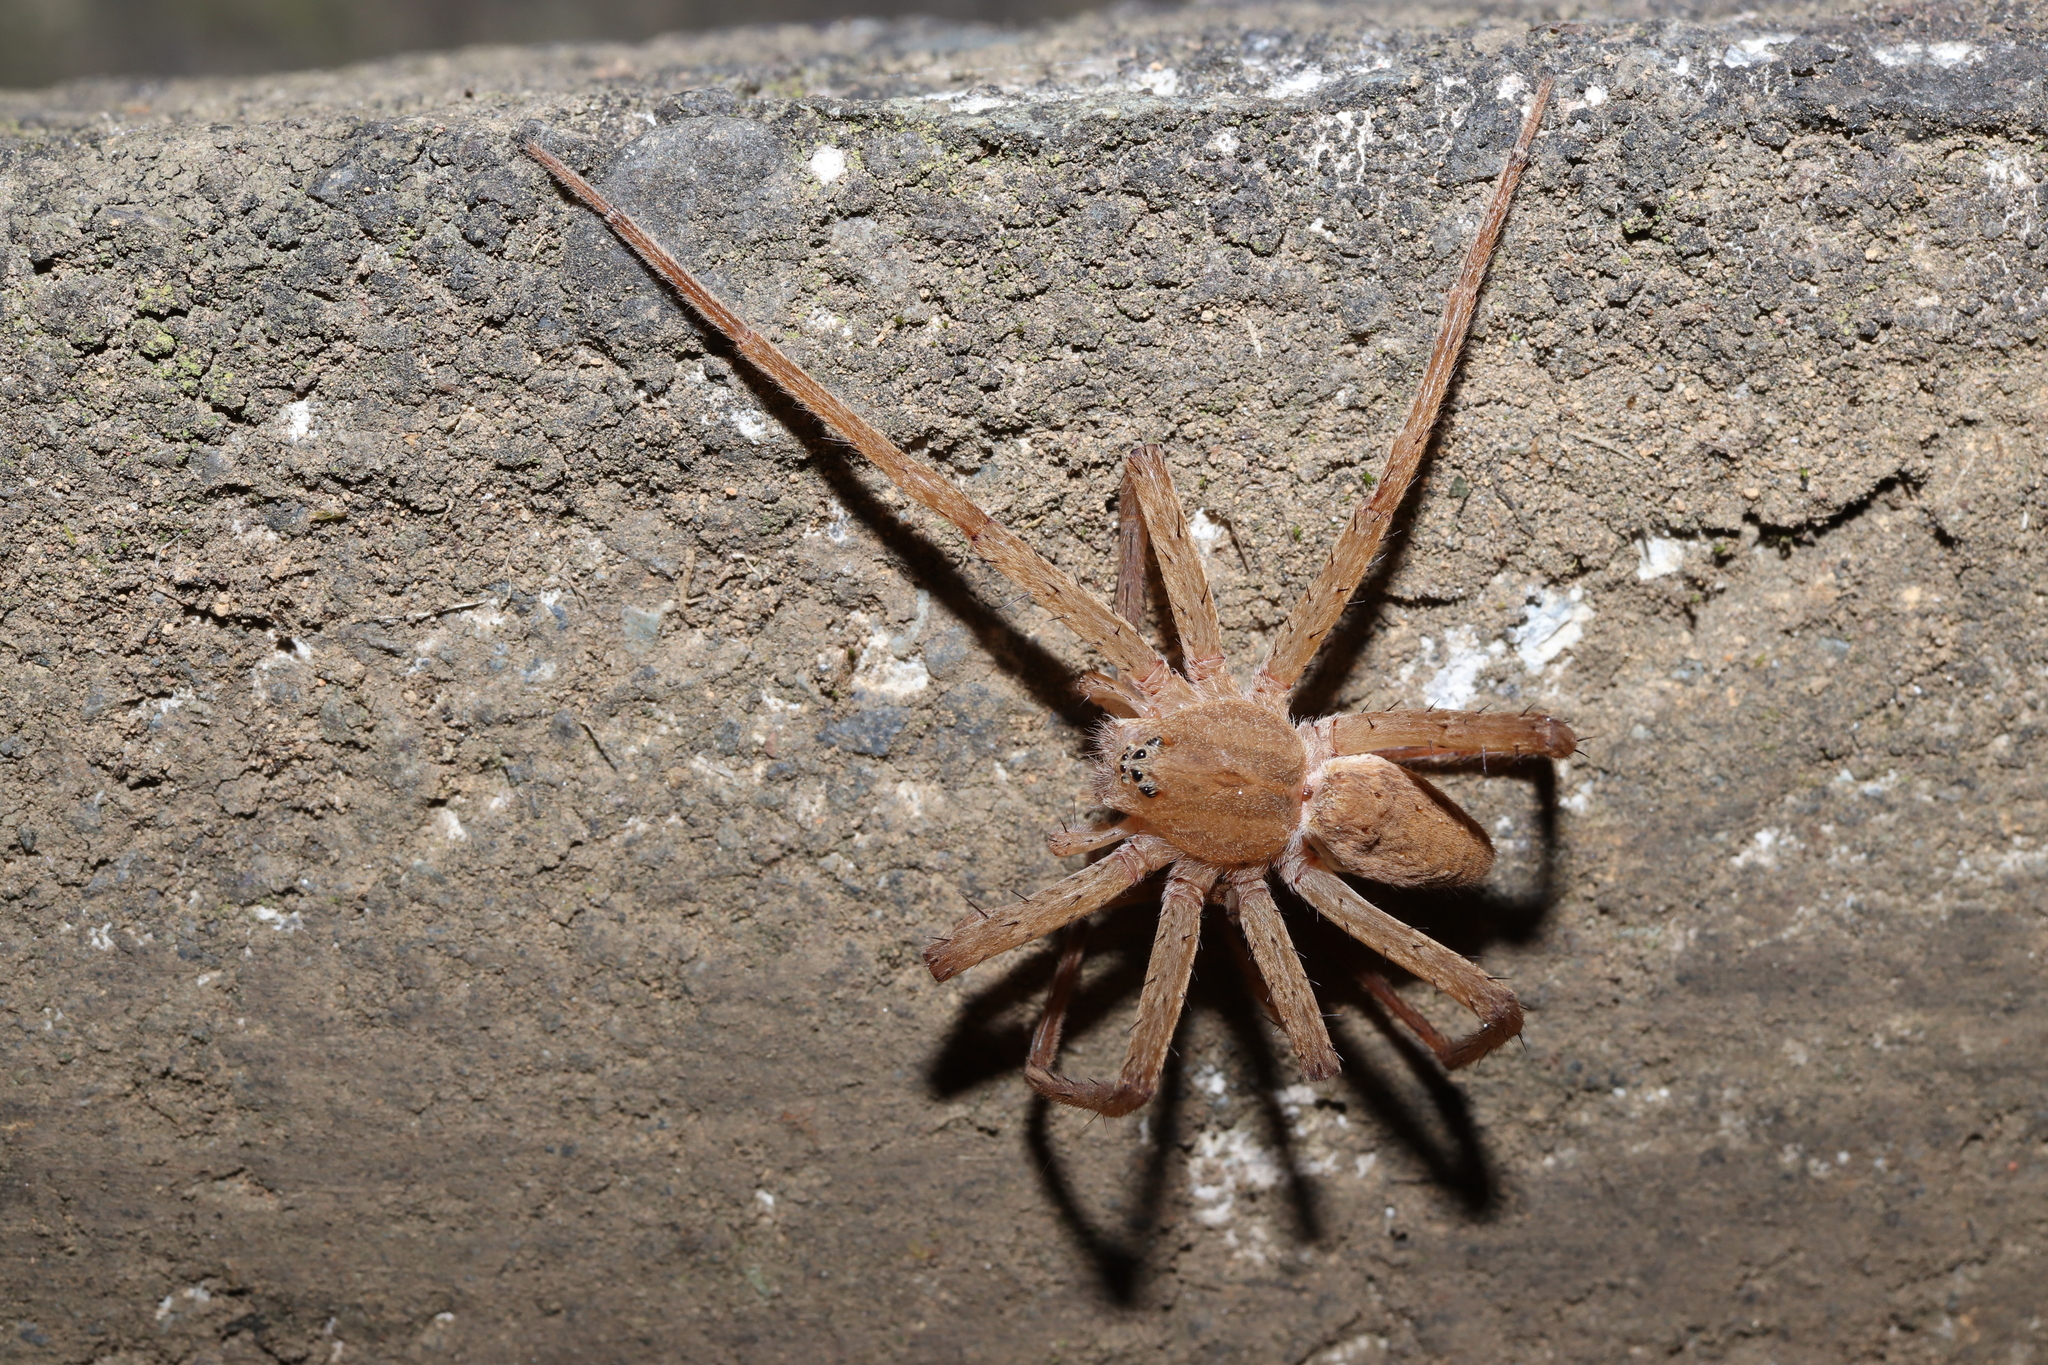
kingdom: Animalia
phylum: Arthropoda
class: Arachnida
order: Araneae
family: Pisauridae
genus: Dolomedes
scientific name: Dolomedes sulfureus
